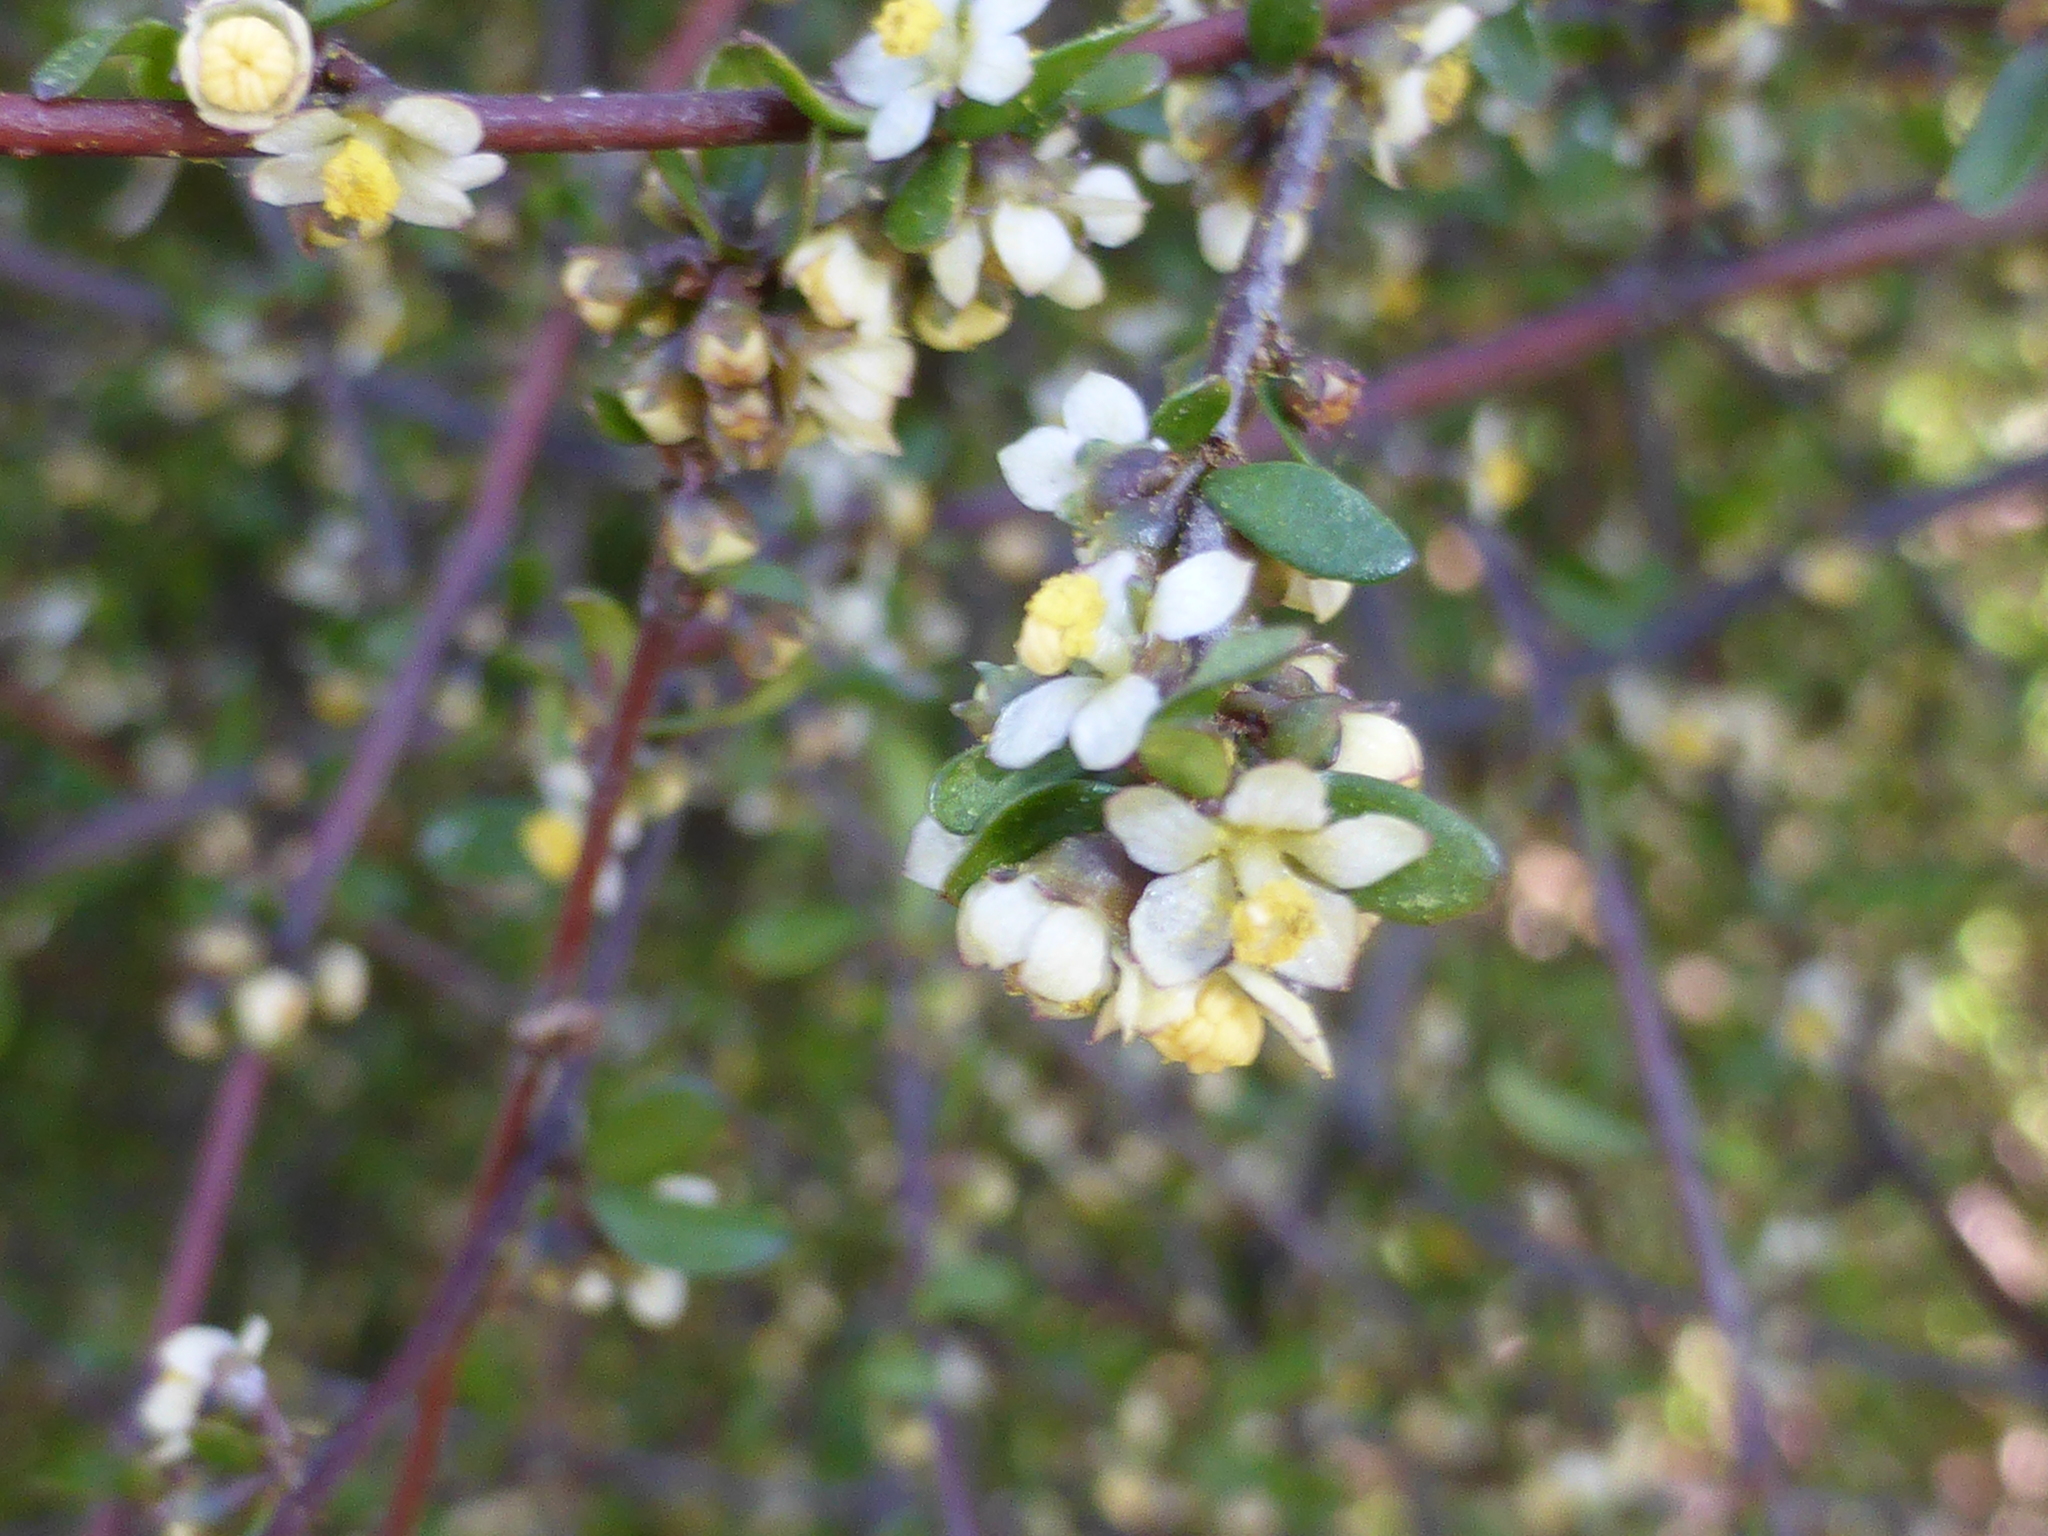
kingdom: Plantae
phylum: Tracheophyta
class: Magnoliopsida
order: Malvales
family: Malvaceae
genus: Plagianthus
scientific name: Plagianthus divaricatus
